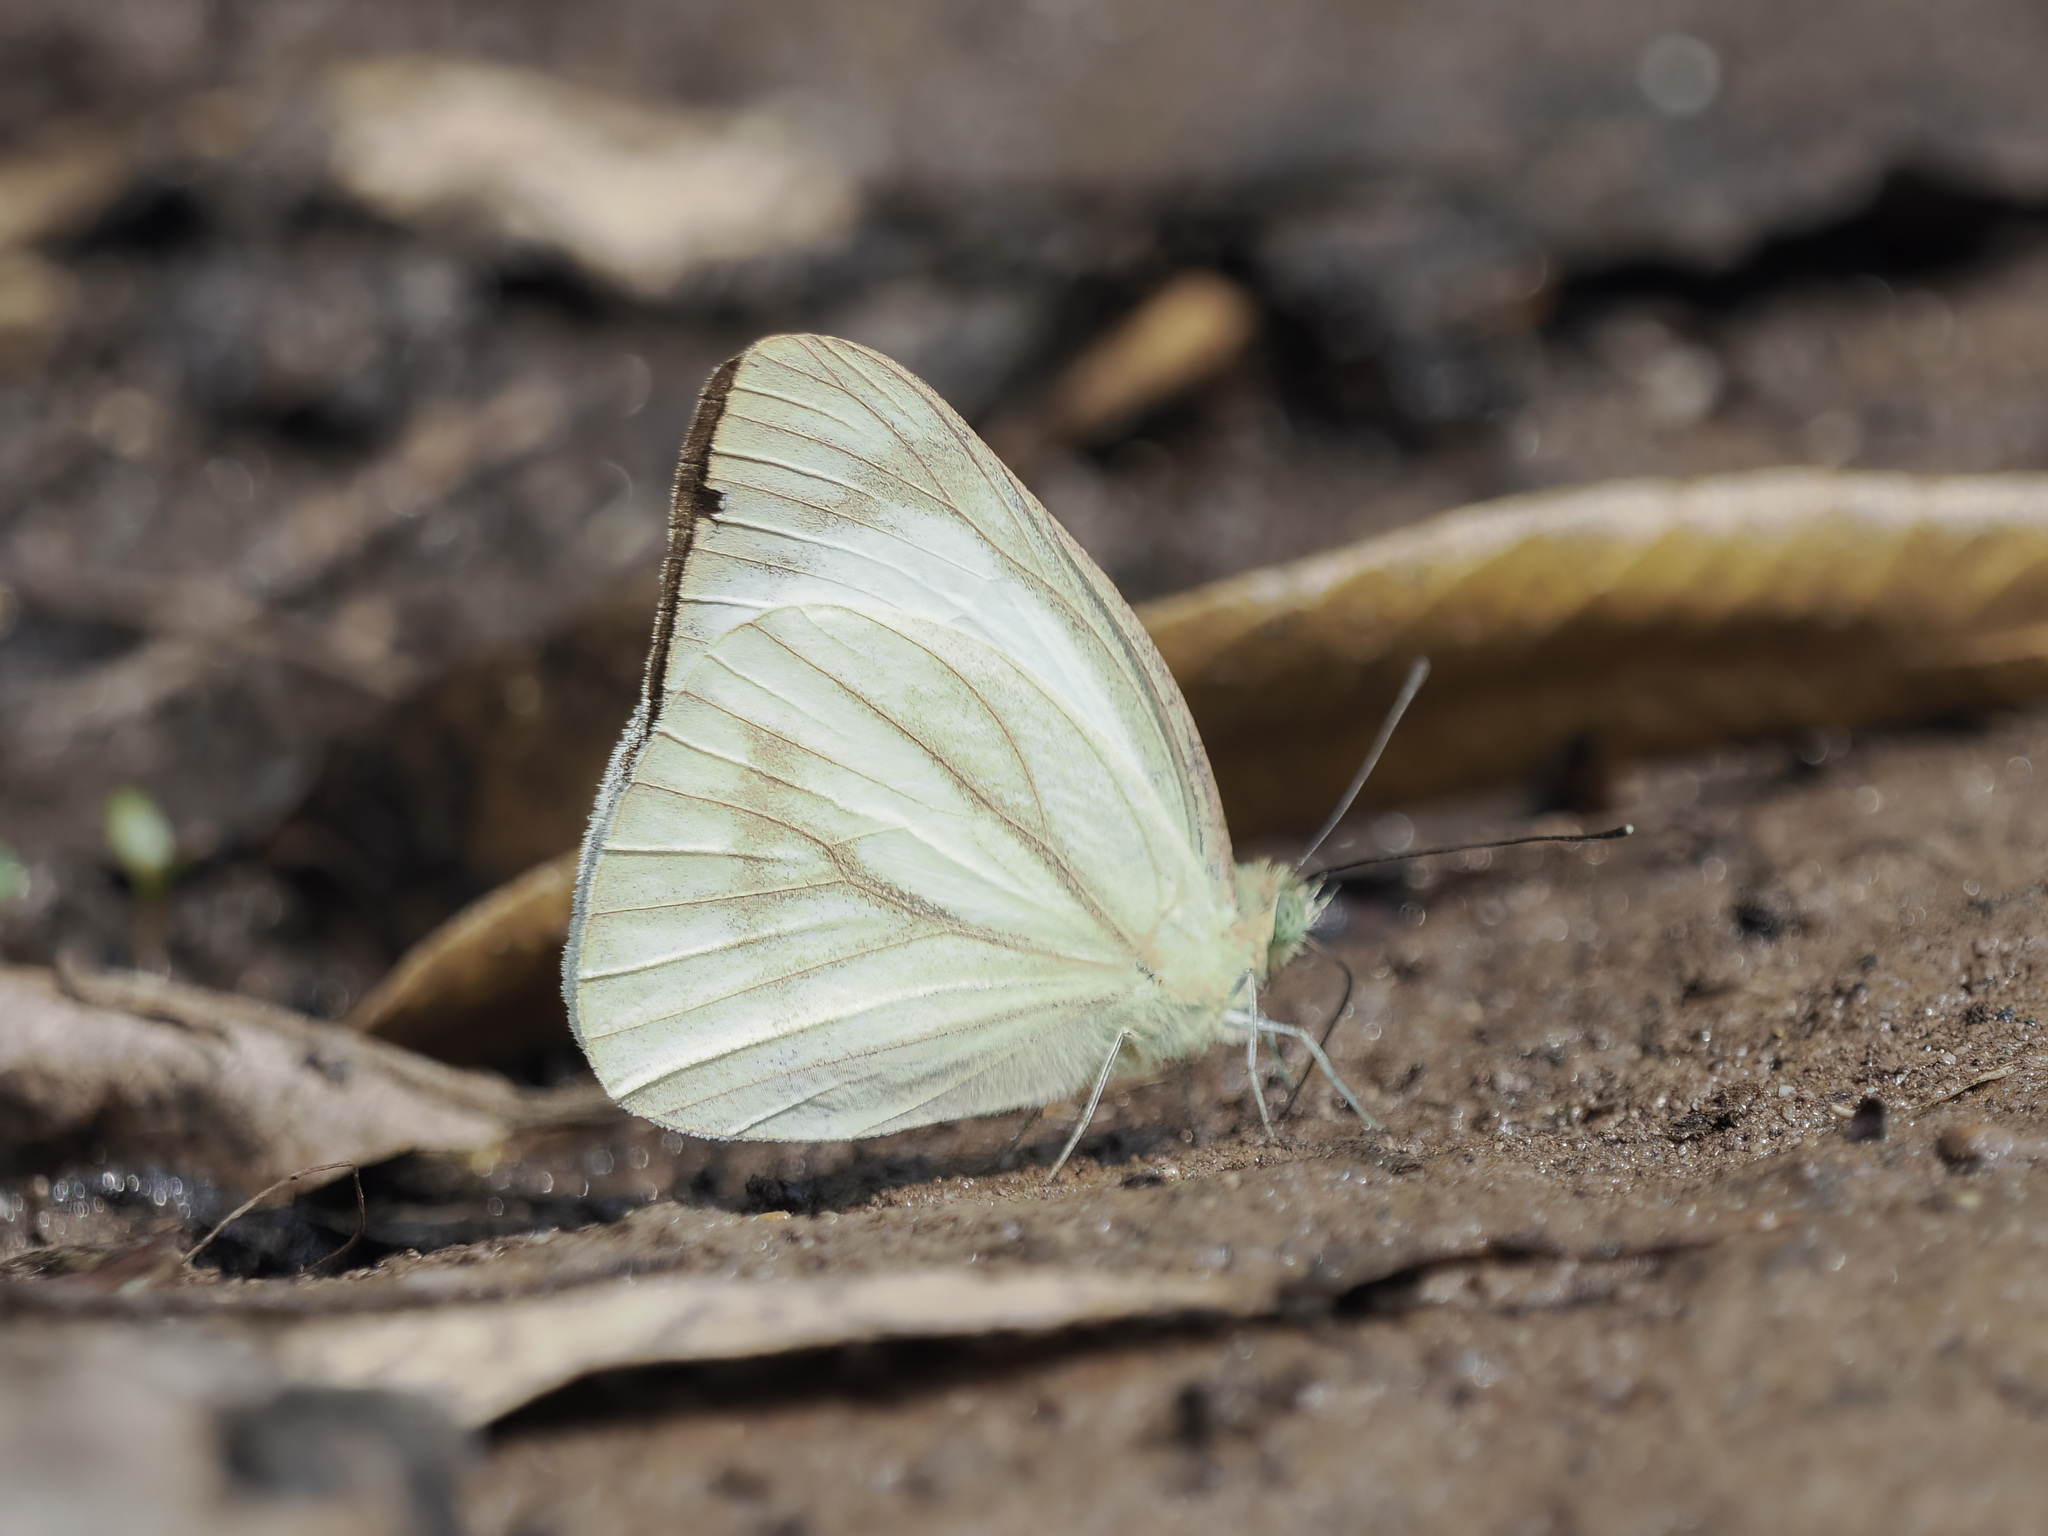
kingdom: Animalia
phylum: Arthropoda
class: Insecta
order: Lepidoptera
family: Pieridae
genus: Cepora
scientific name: Cepora nerissa
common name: Common gull
